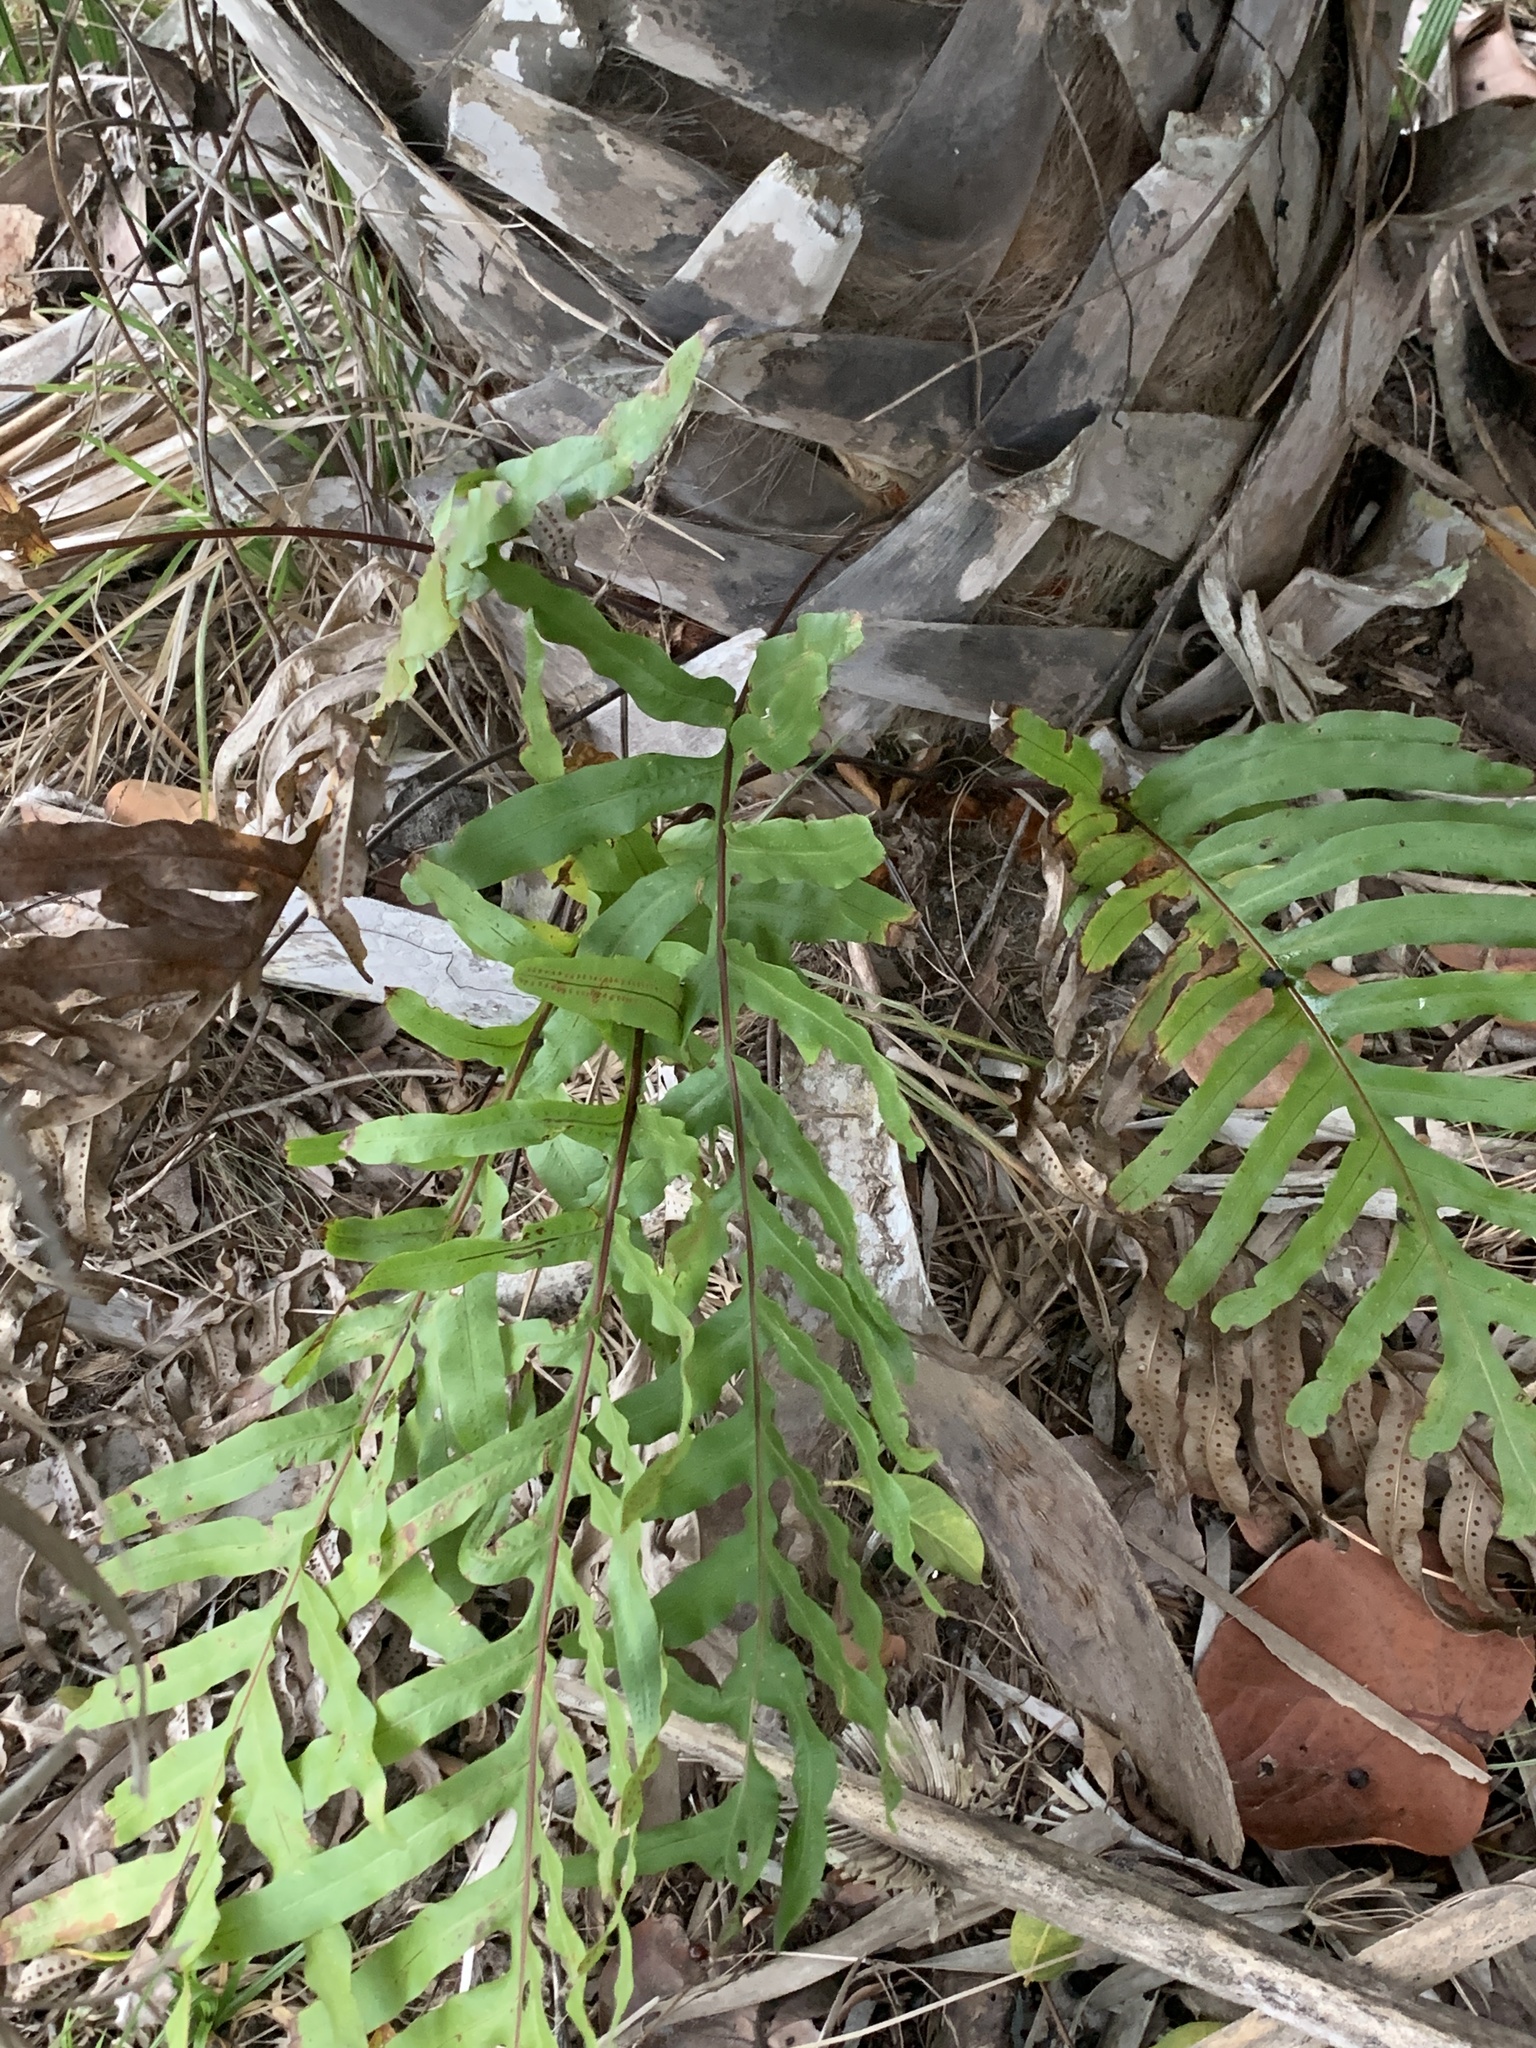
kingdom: Plantae
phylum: Tracheophyta
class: Polypodiopsida
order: Polypodiales
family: Polypodiaceae
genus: Phlebodium
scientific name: Phlebodium aureum
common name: Gold-foot fern
